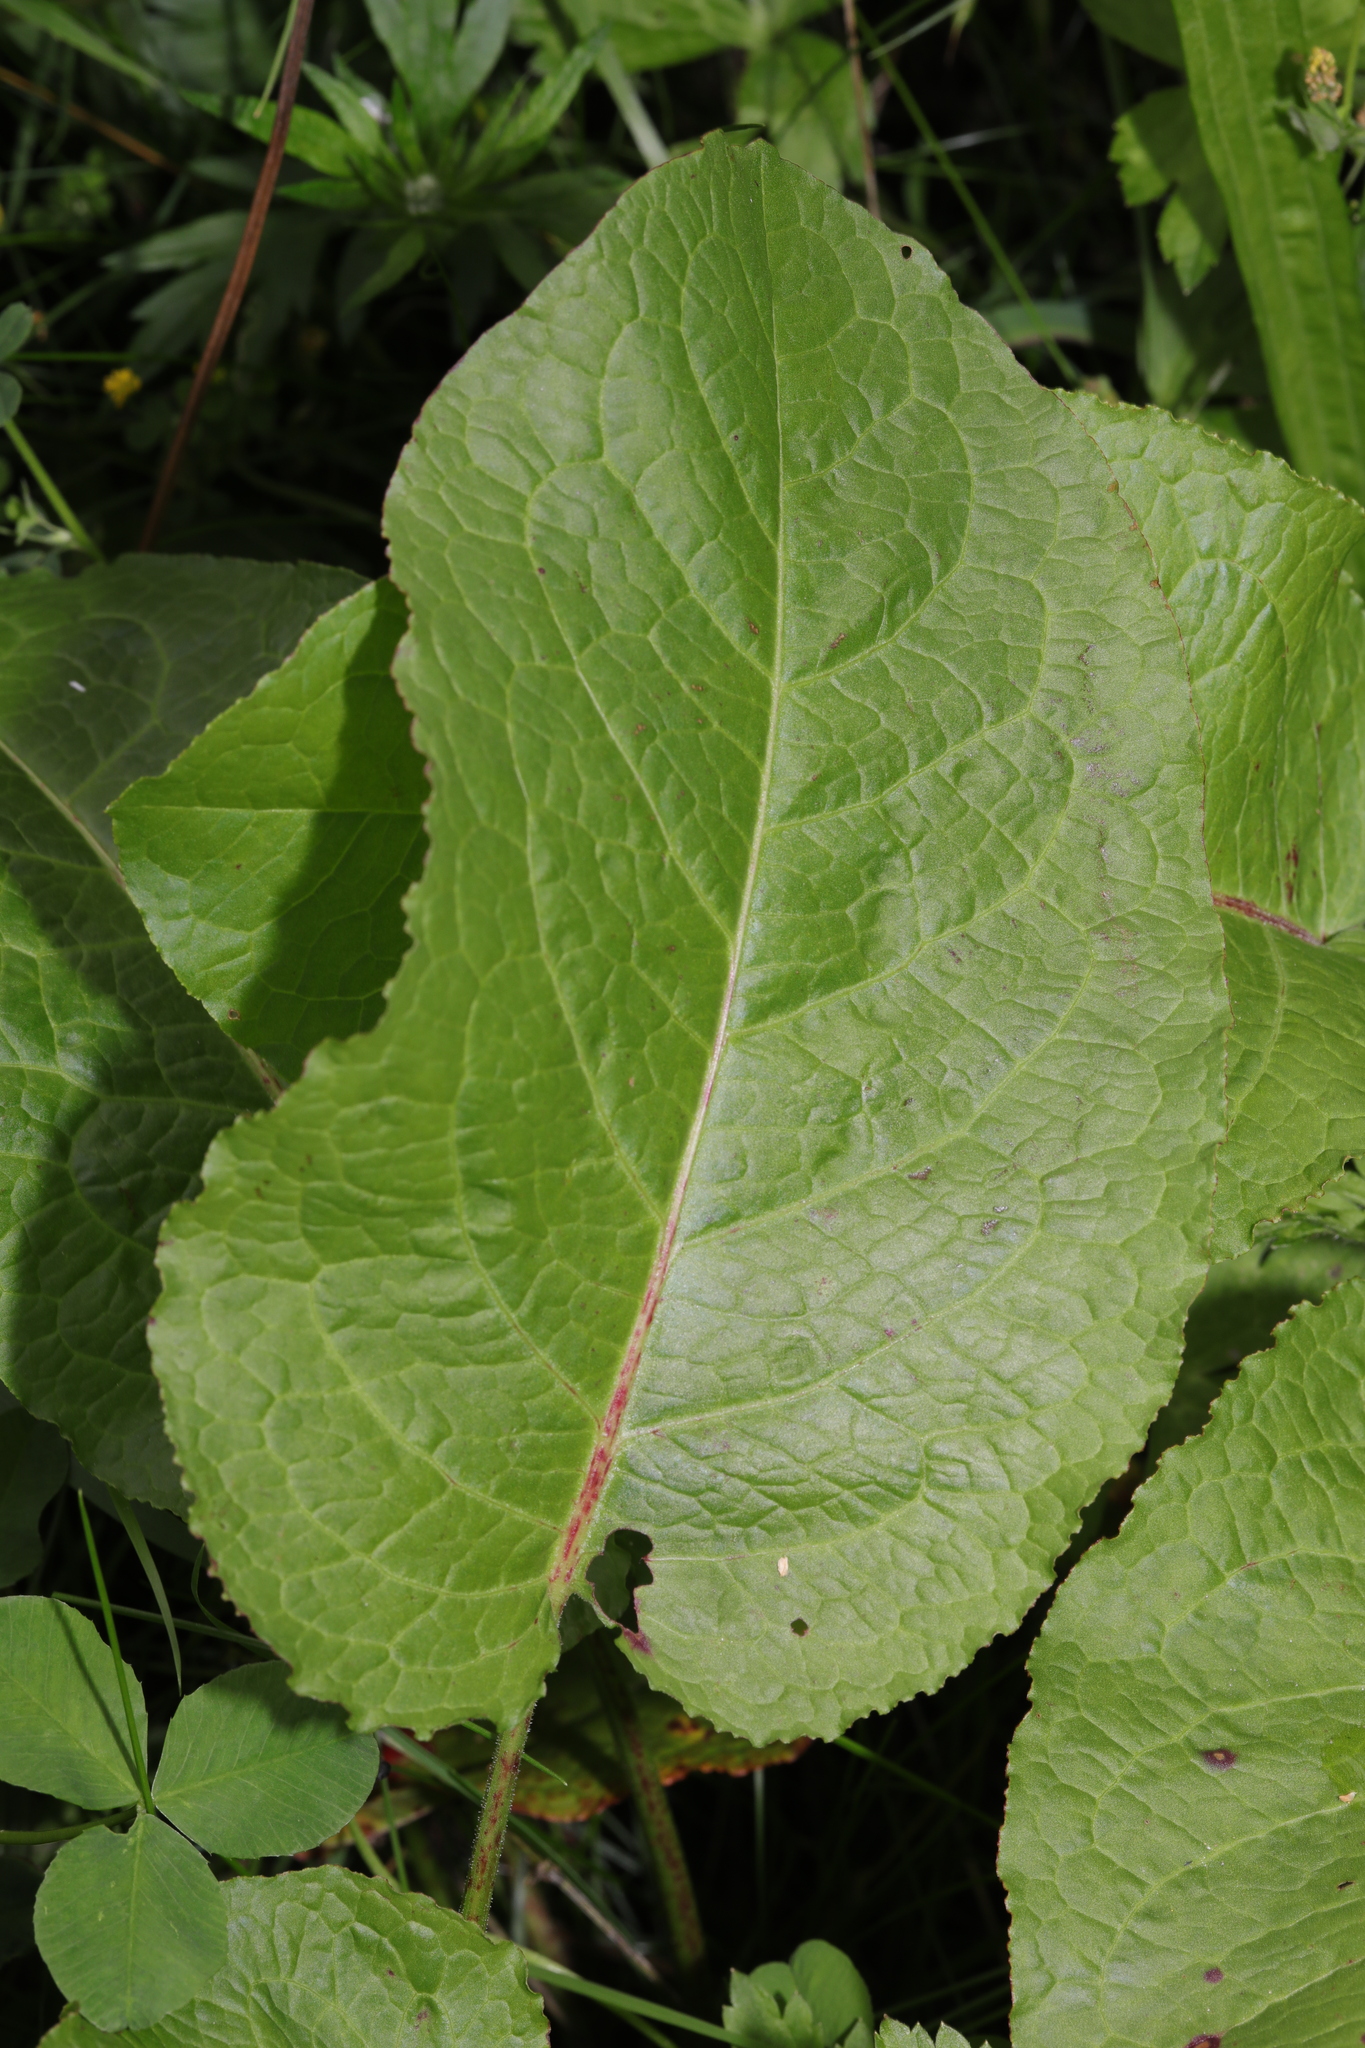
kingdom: Plantae
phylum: Tracheophyta
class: Magnoliopsida
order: Caryophyllales
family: Polygonaceae
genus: Rumex
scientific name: Rumex obtusifolius
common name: Bitter dock
